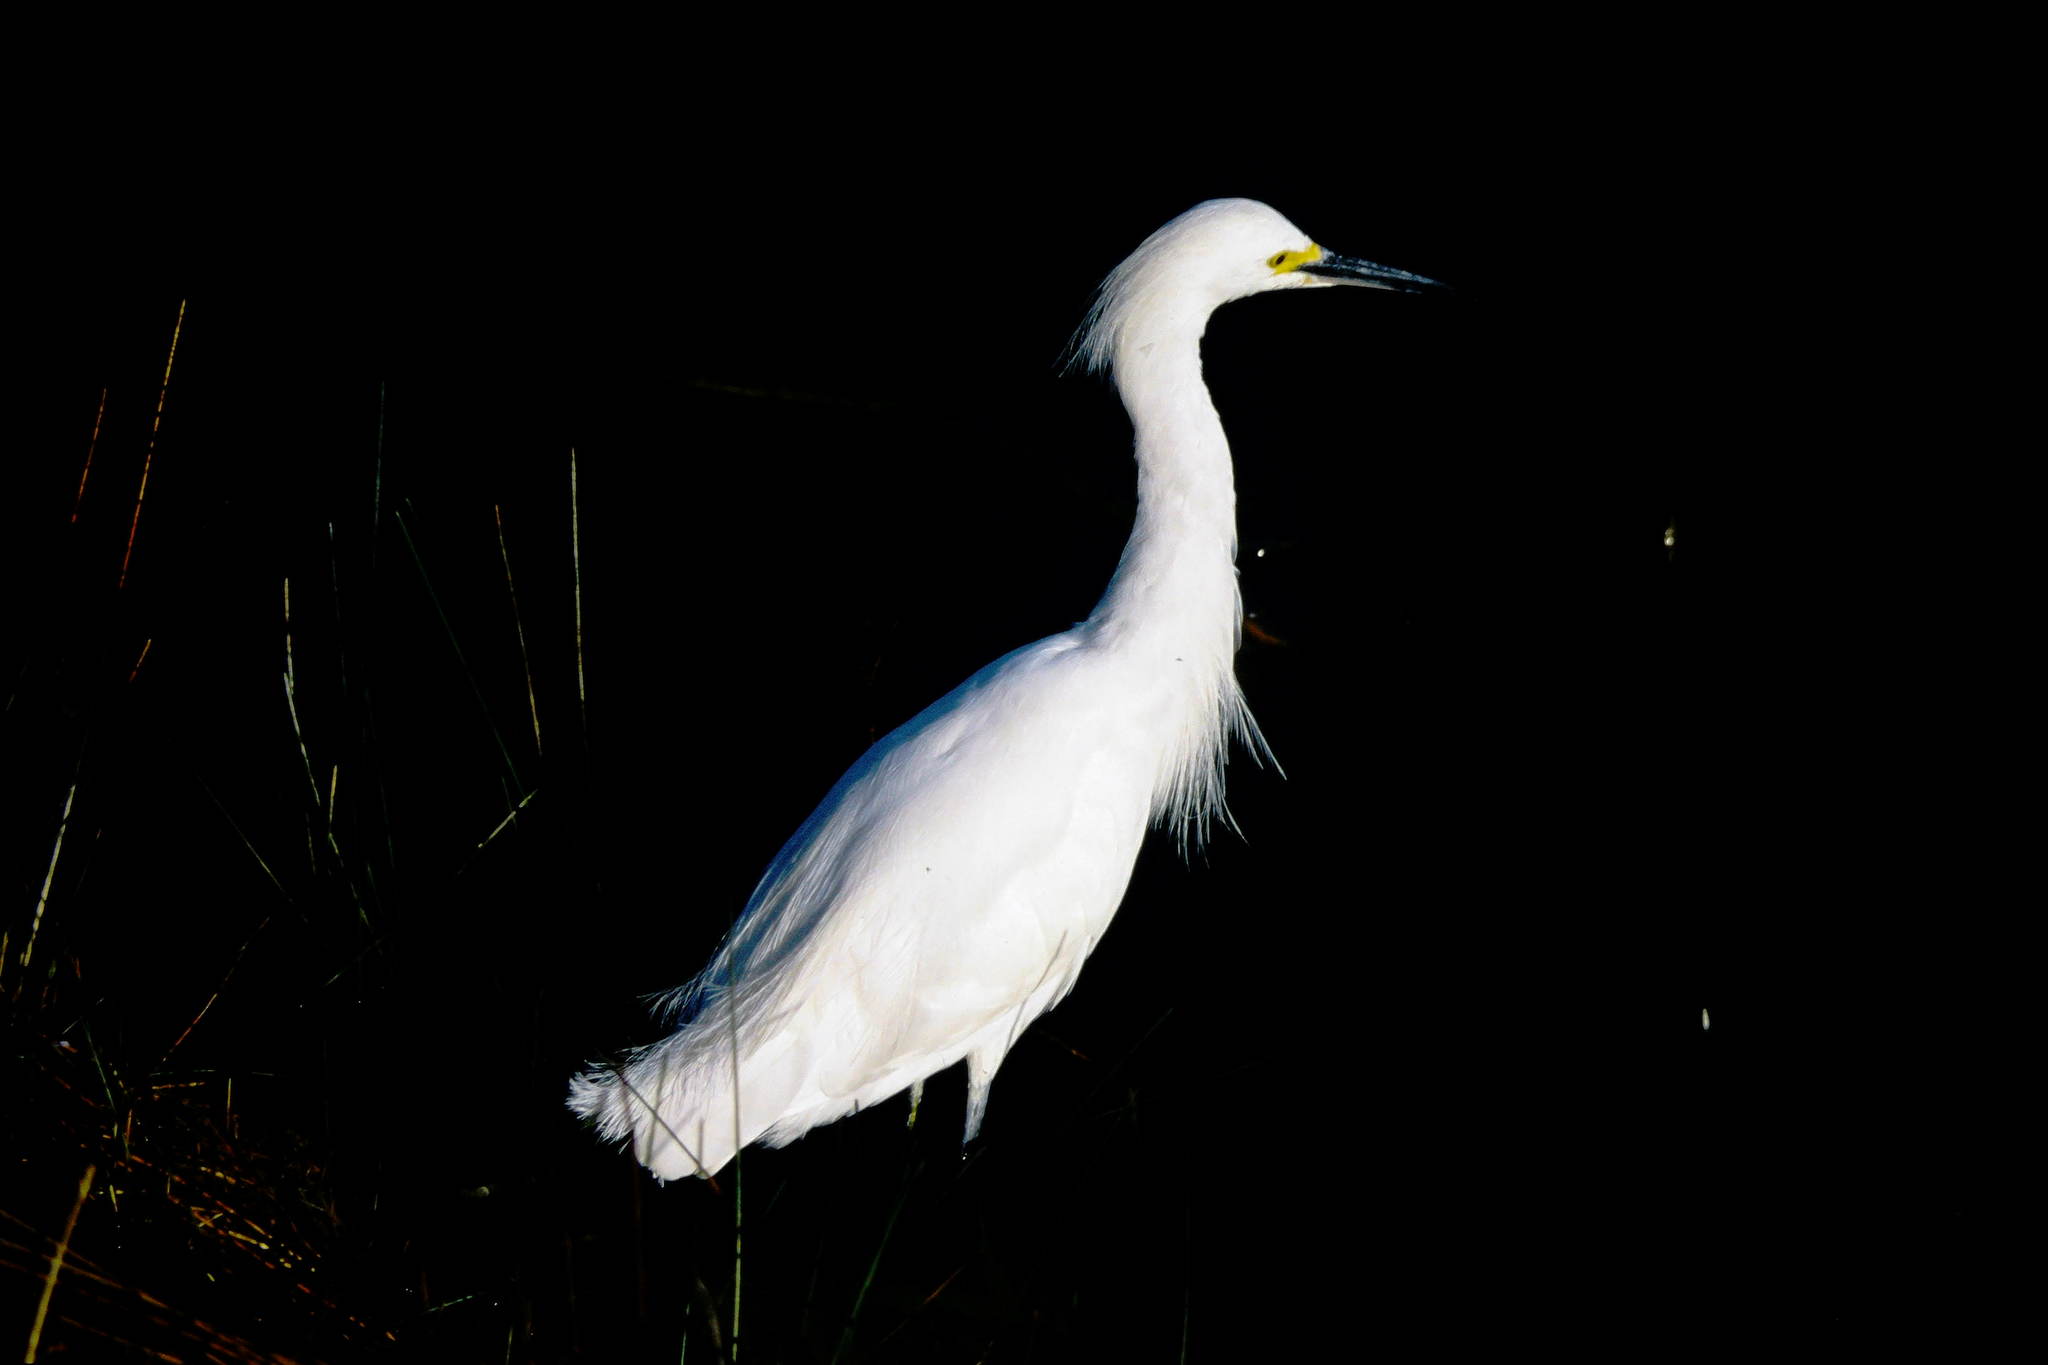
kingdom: Animalia
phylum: Chordata
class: Aves
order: Pelecaniformes
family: Ardeidae
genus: Egretta
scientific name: Egretta thula
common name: Snowy egret
